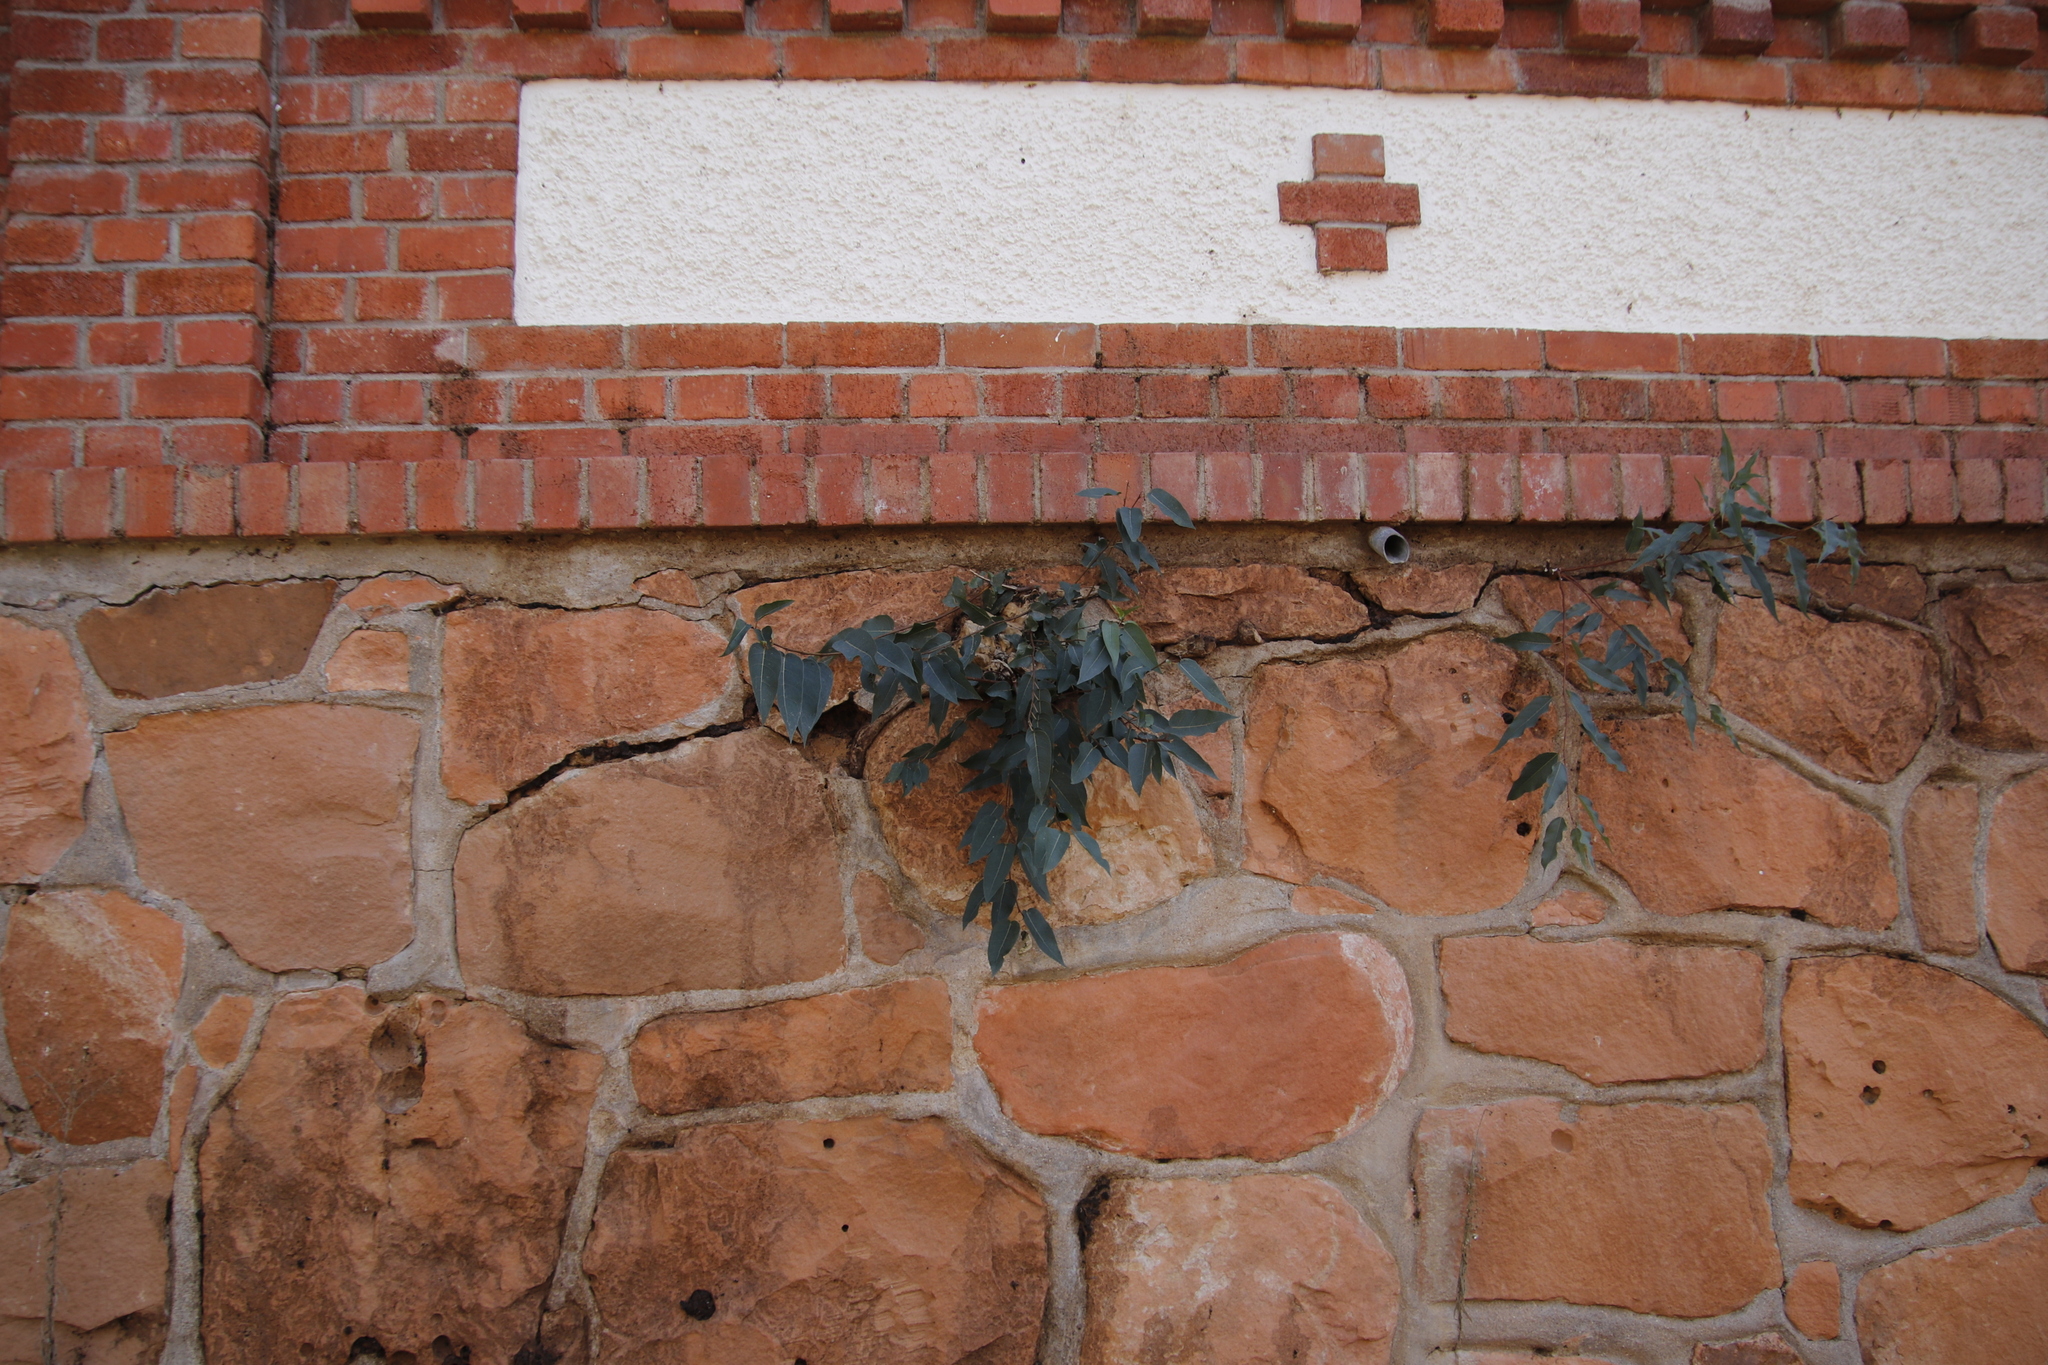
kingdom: Plantae
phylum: Tracheophyta
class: Magnoliopsida
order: Rosales
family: Moraceae
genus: Ficus
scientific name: Ficus cordata
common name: Namaqua rock fig
